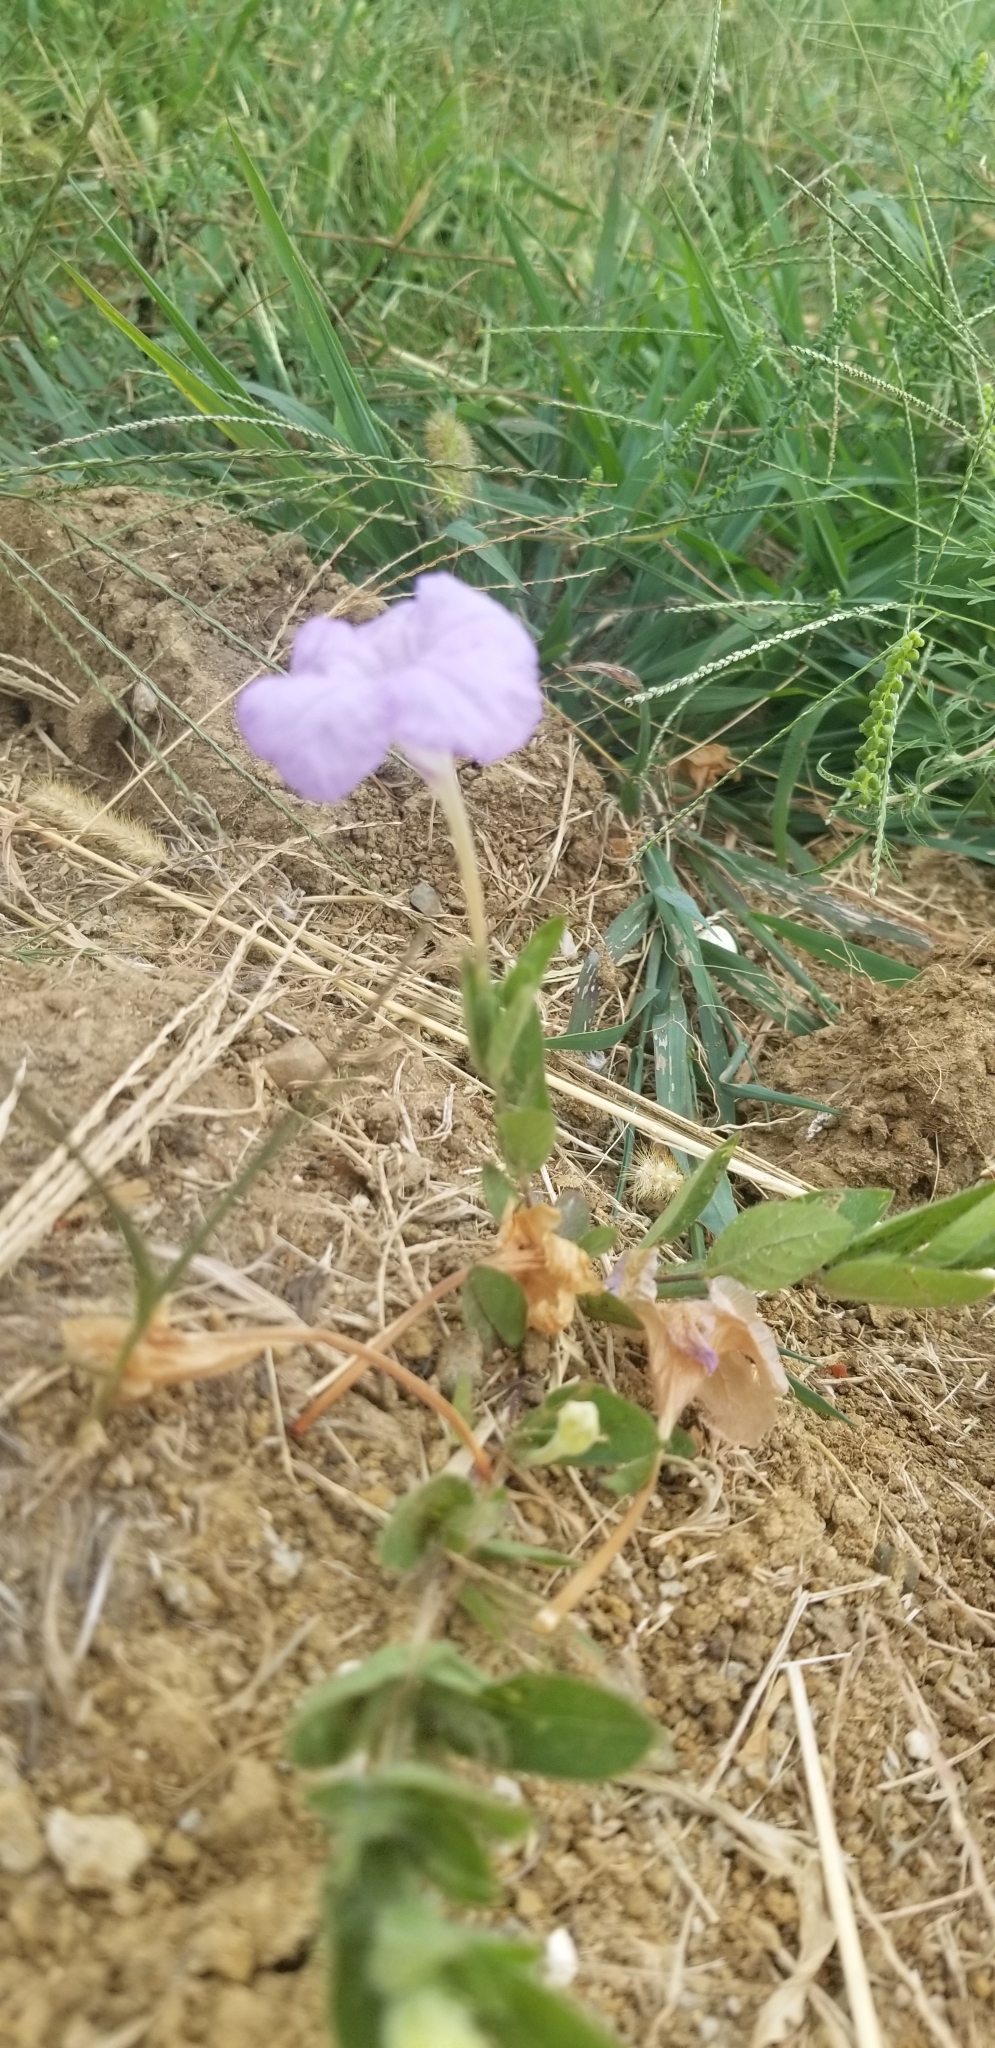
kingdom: Plantae
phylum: Tracheophyta
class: Magnoliopsida
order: Lamiales
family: Acanthaceae
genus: Ruellia
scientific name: Ruellia humilis
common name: Fringe-leaf ruellia
